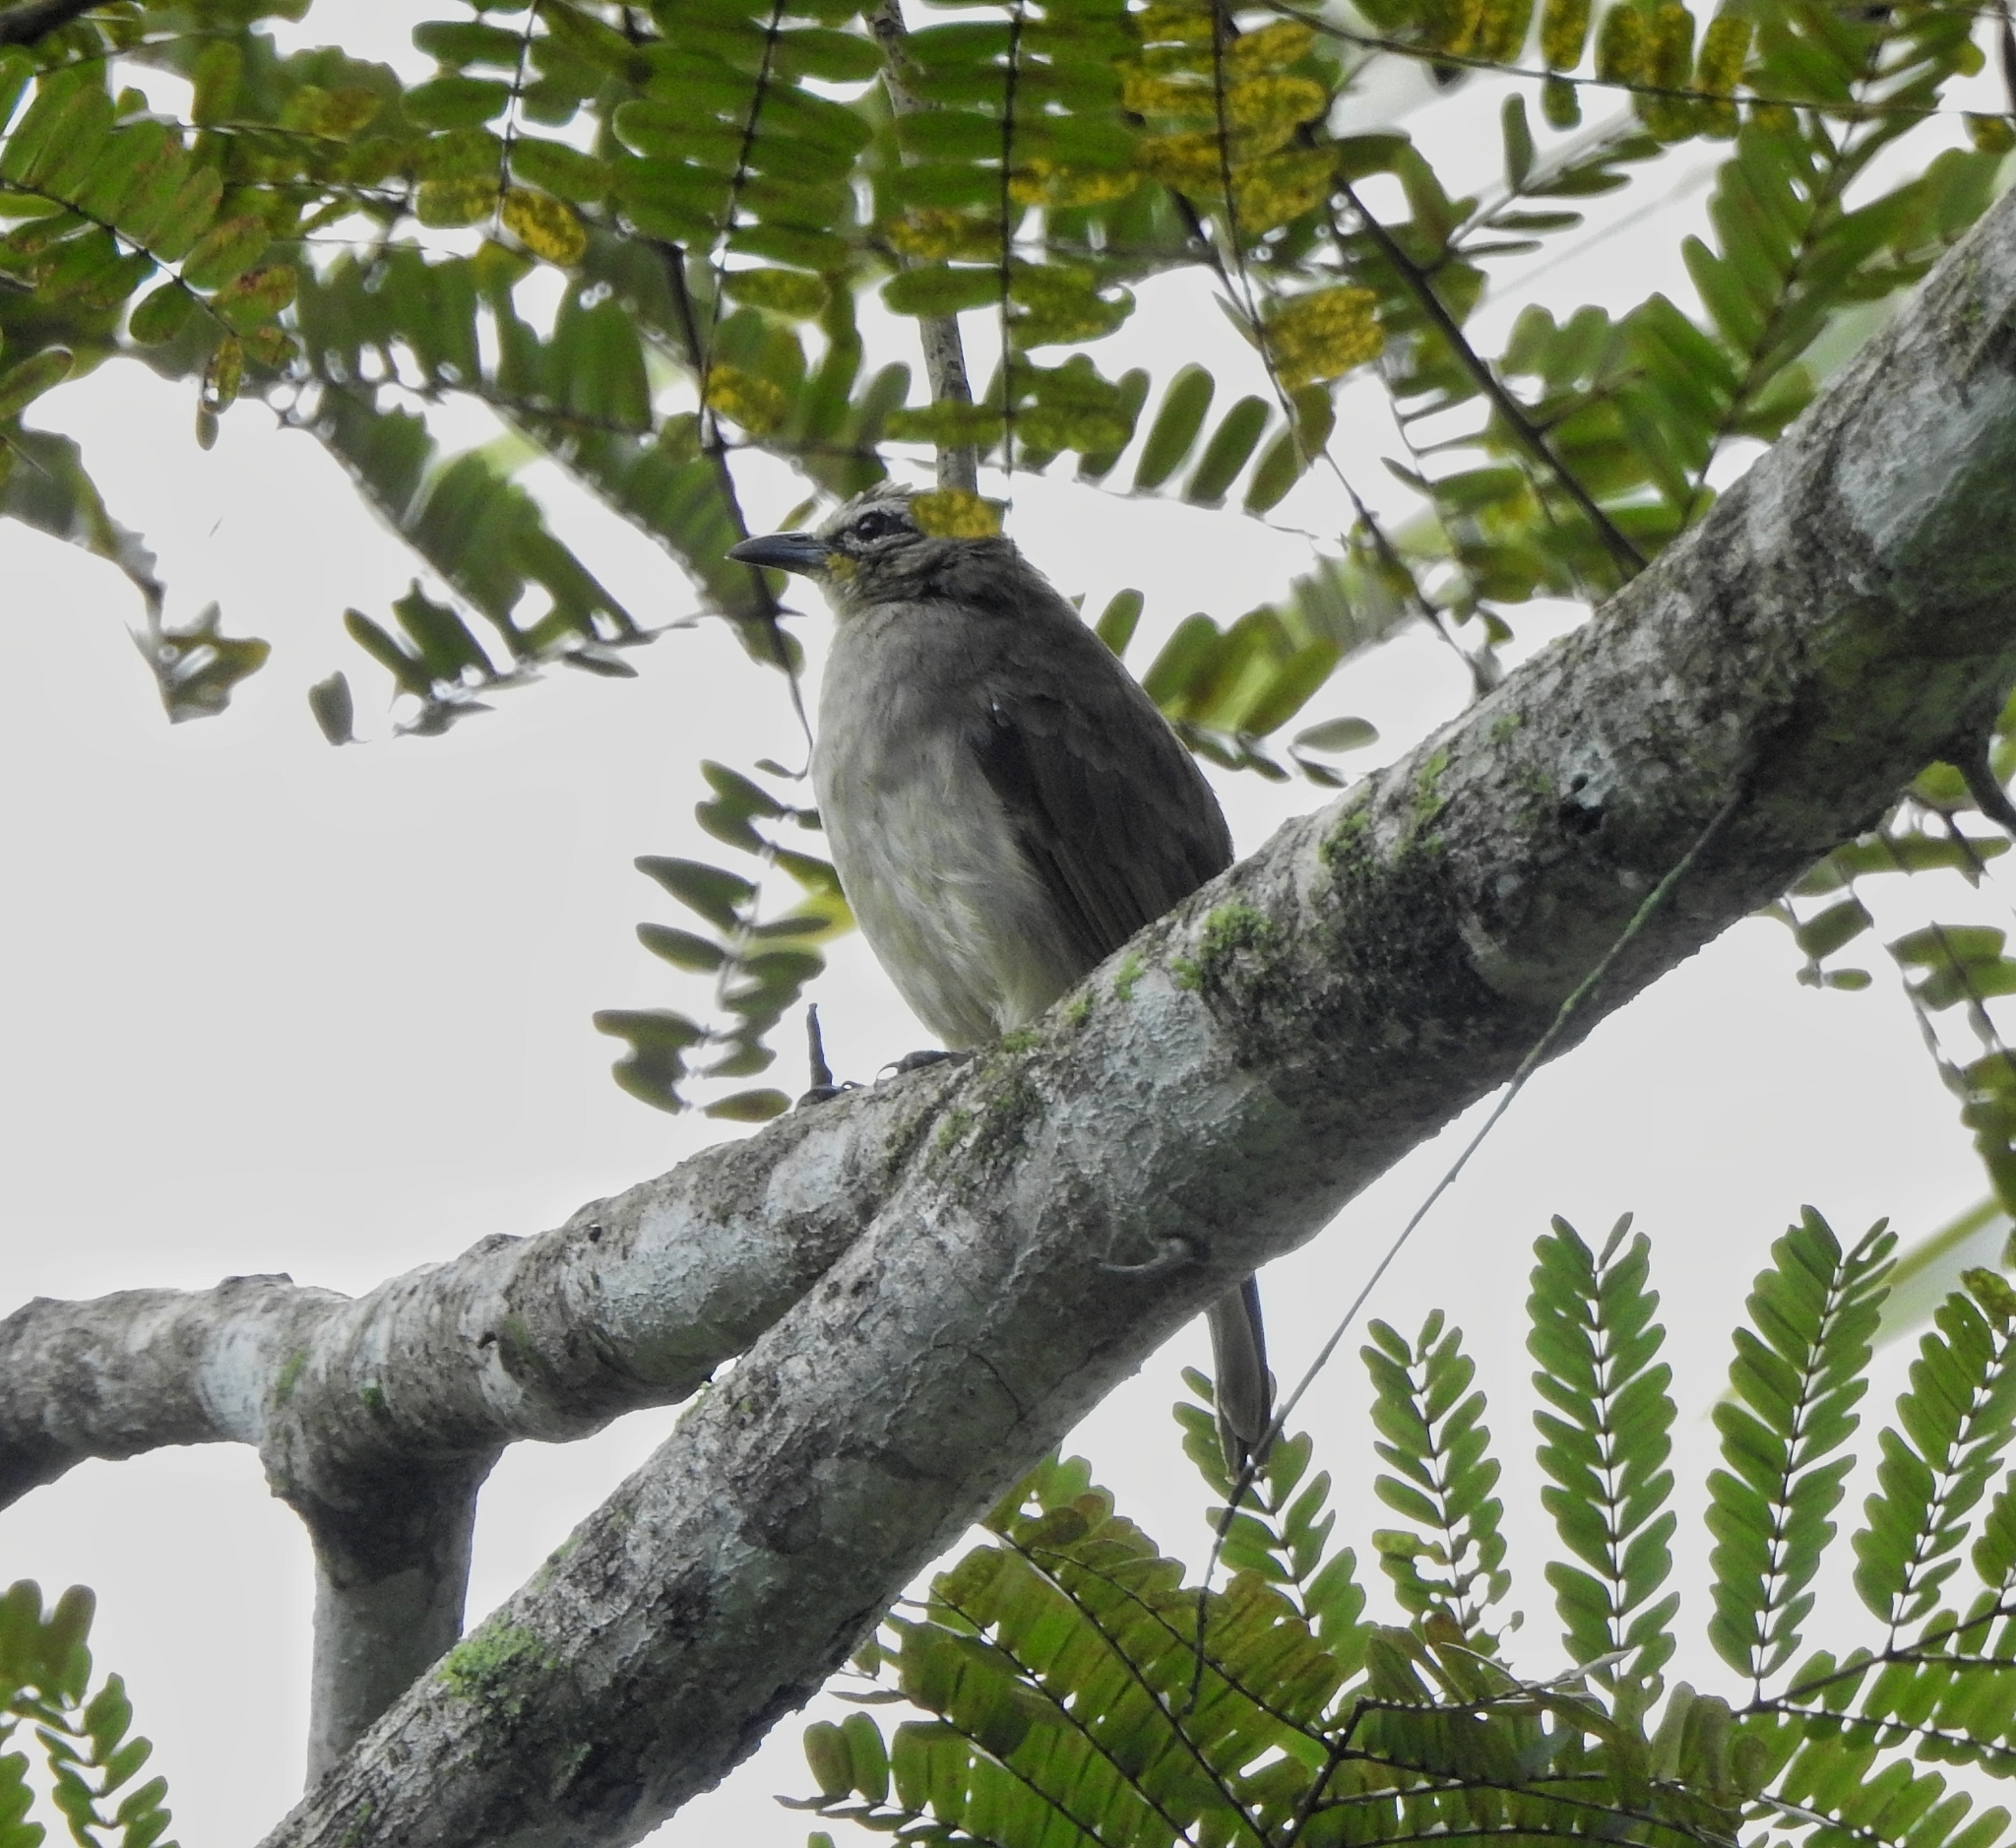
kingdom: Animalia
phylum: Chordata
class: Aves
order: Passeriformes
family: Pycnonotidae
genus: Pycnonotus
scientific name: Pycnonotus luteolus
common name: White-browed bulbul
